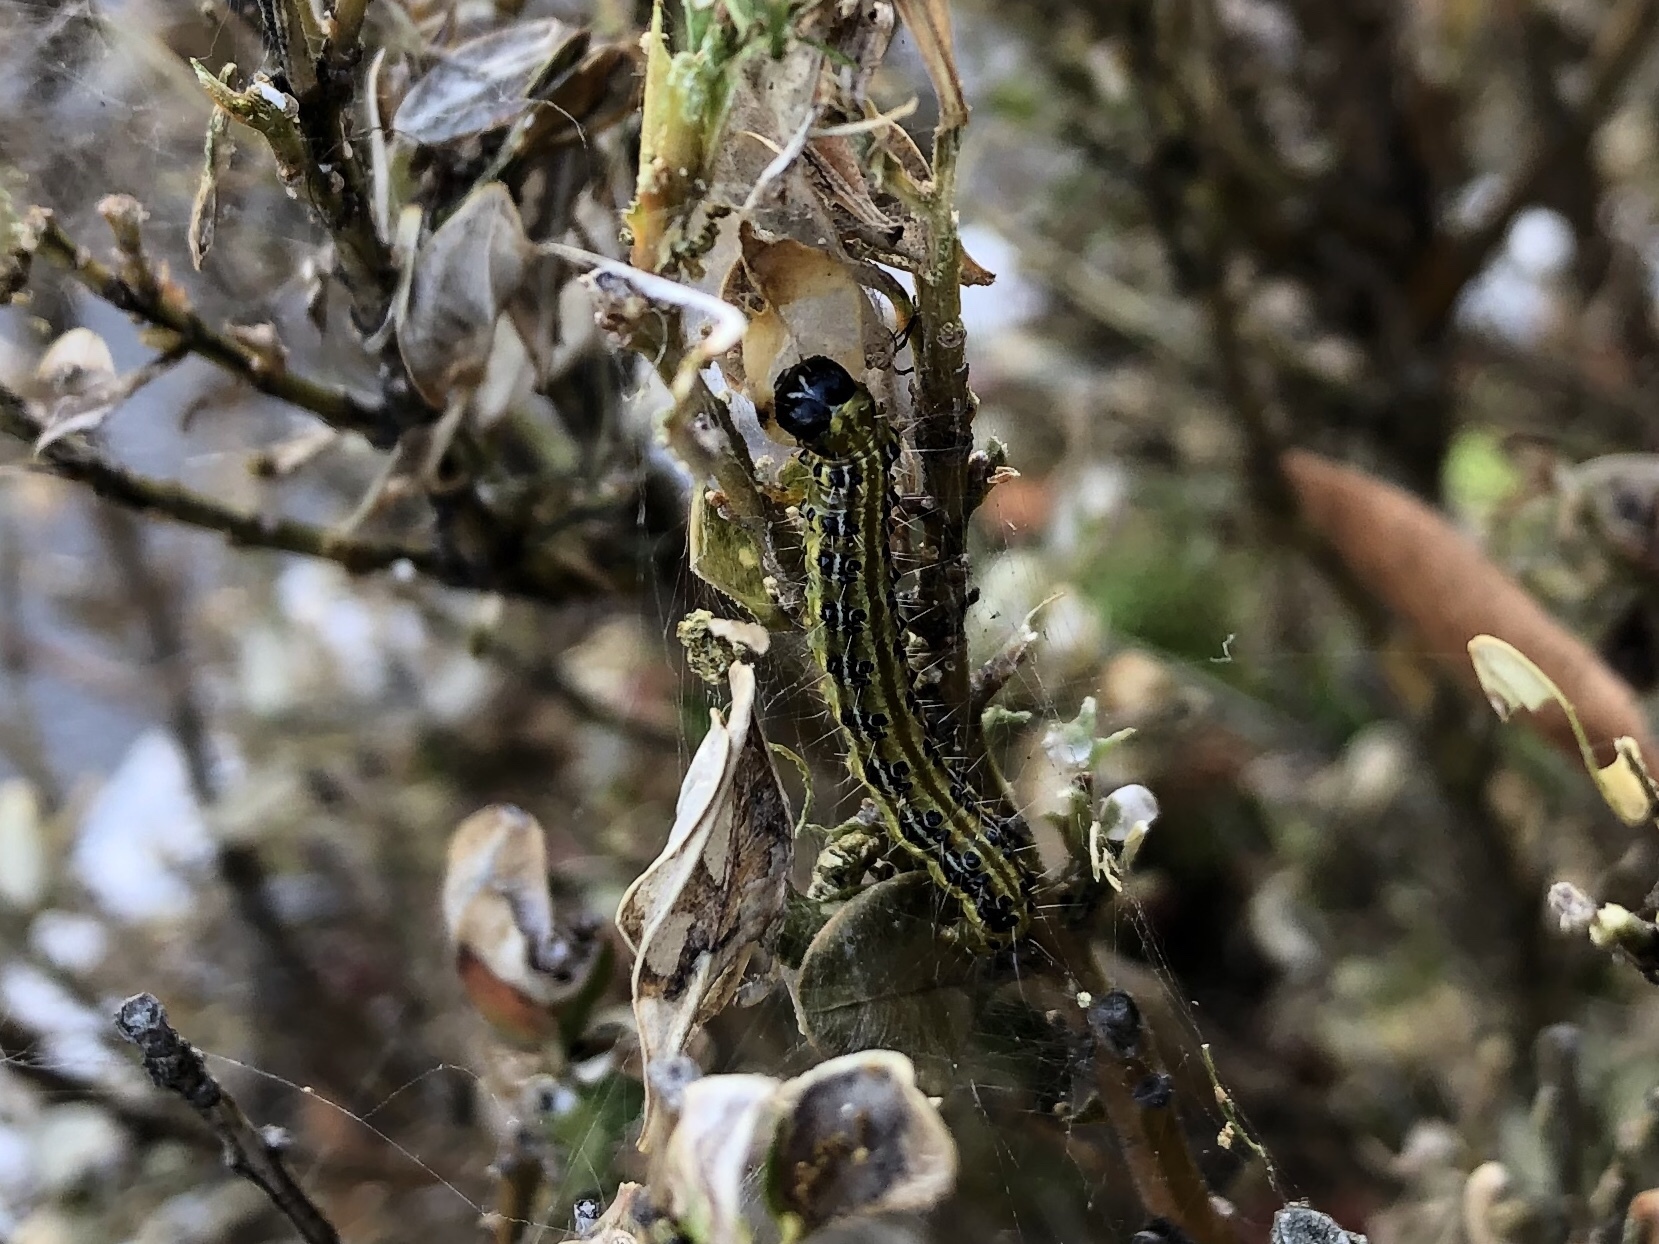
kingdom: Animalia
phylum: Arthropoda
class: Insecta
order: Lepidoptera
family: Crambidae
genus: Cydalima
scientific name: Cydalima perspectalis
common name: Box tree moth
